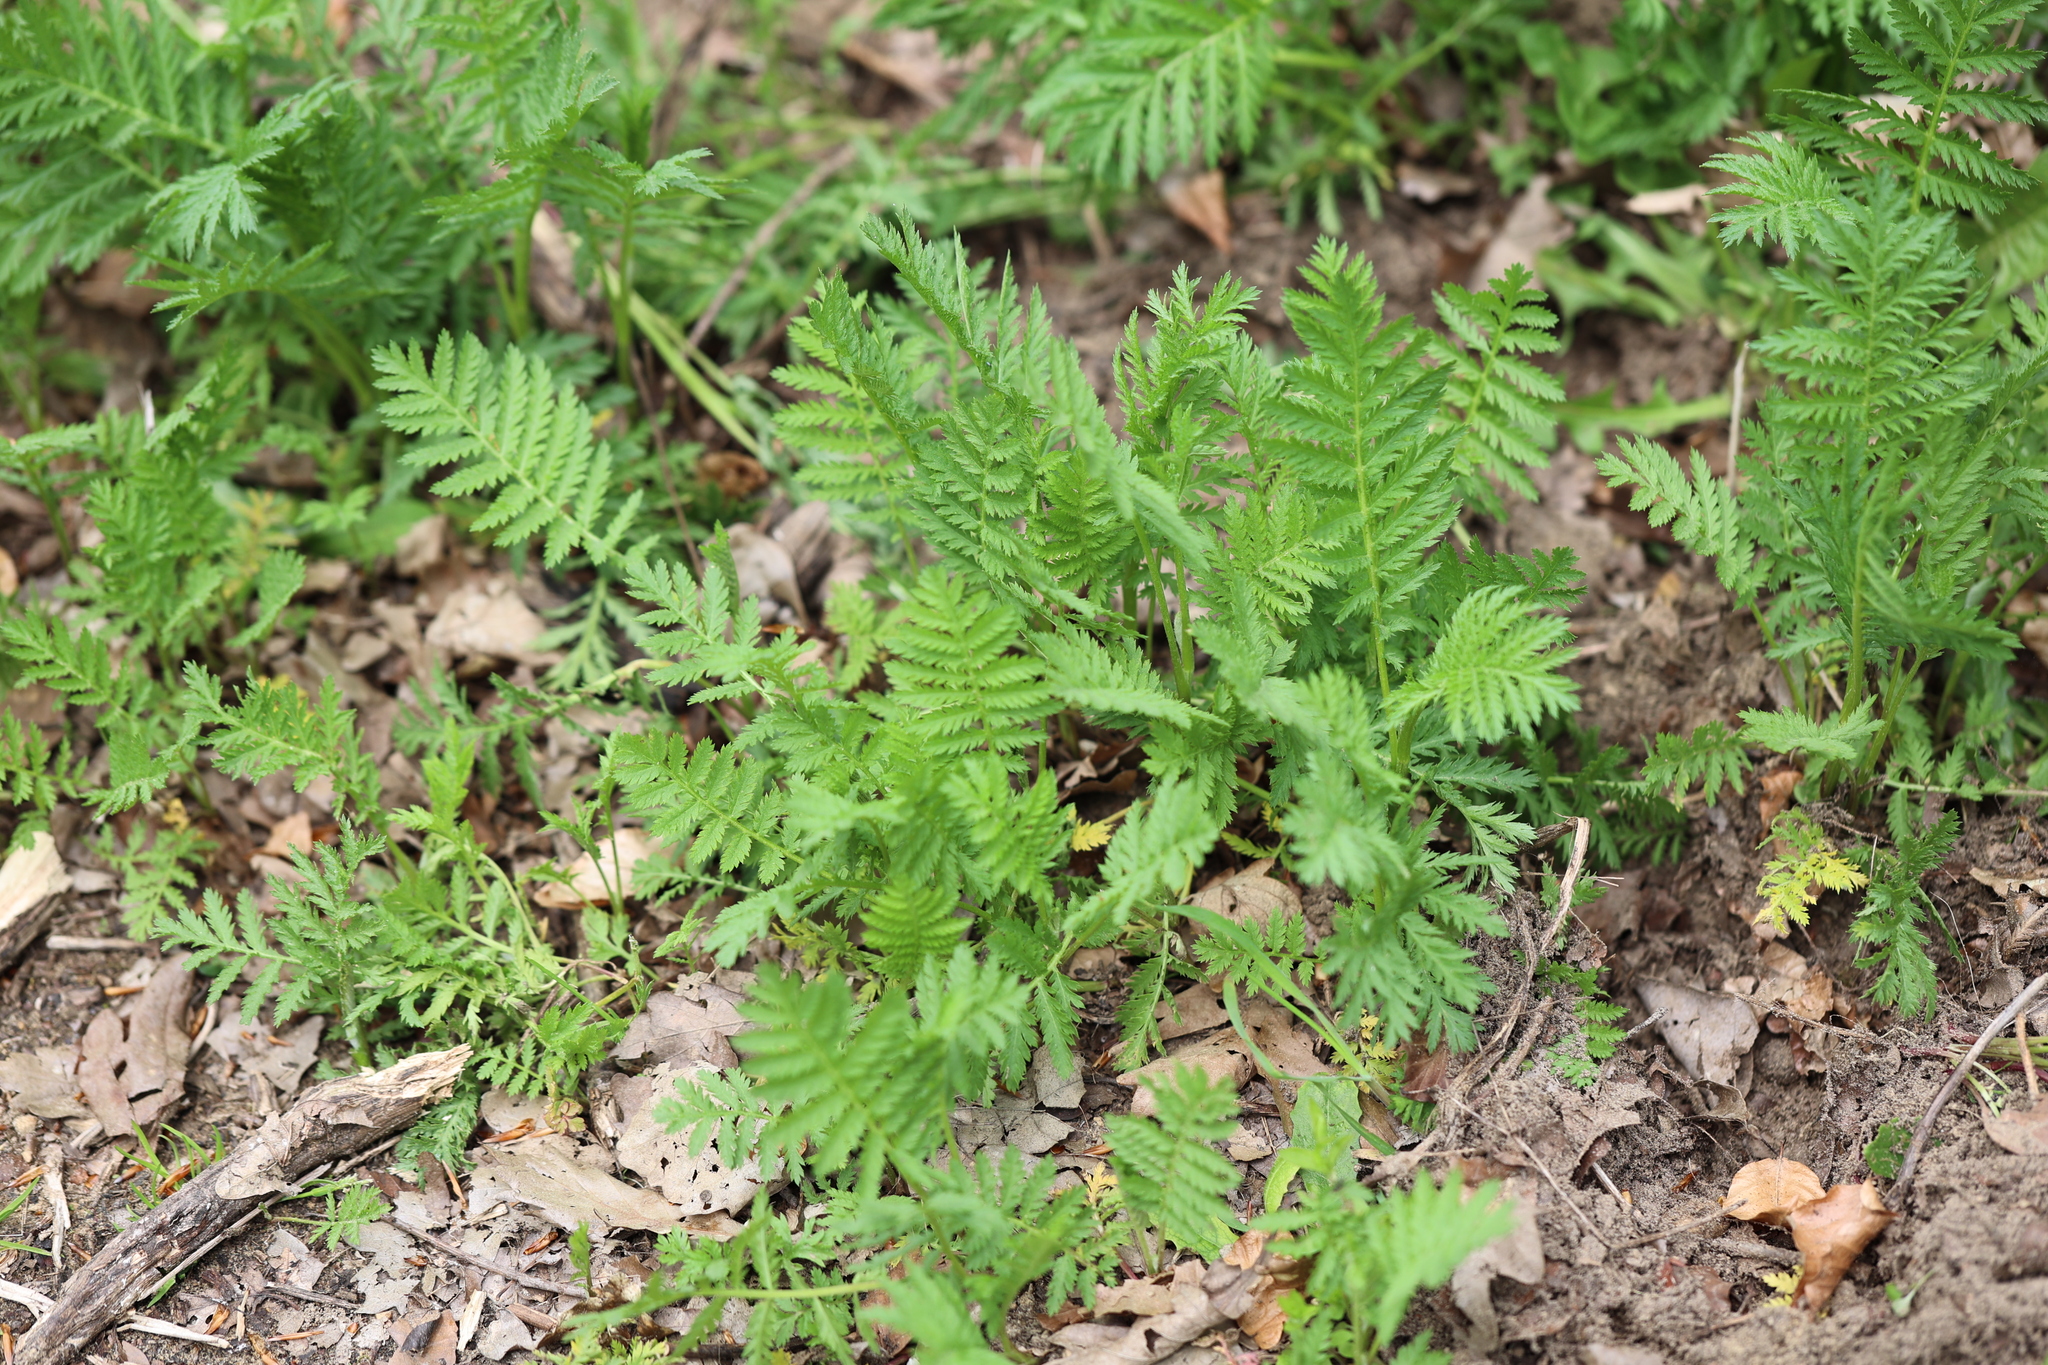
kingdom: Plantae
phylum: Tracheophyta
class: Magnoliopsida
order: Asterales
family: Asteraceae
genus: Tanacetum
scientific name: Tanacetum vulgare
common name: Common tansy
